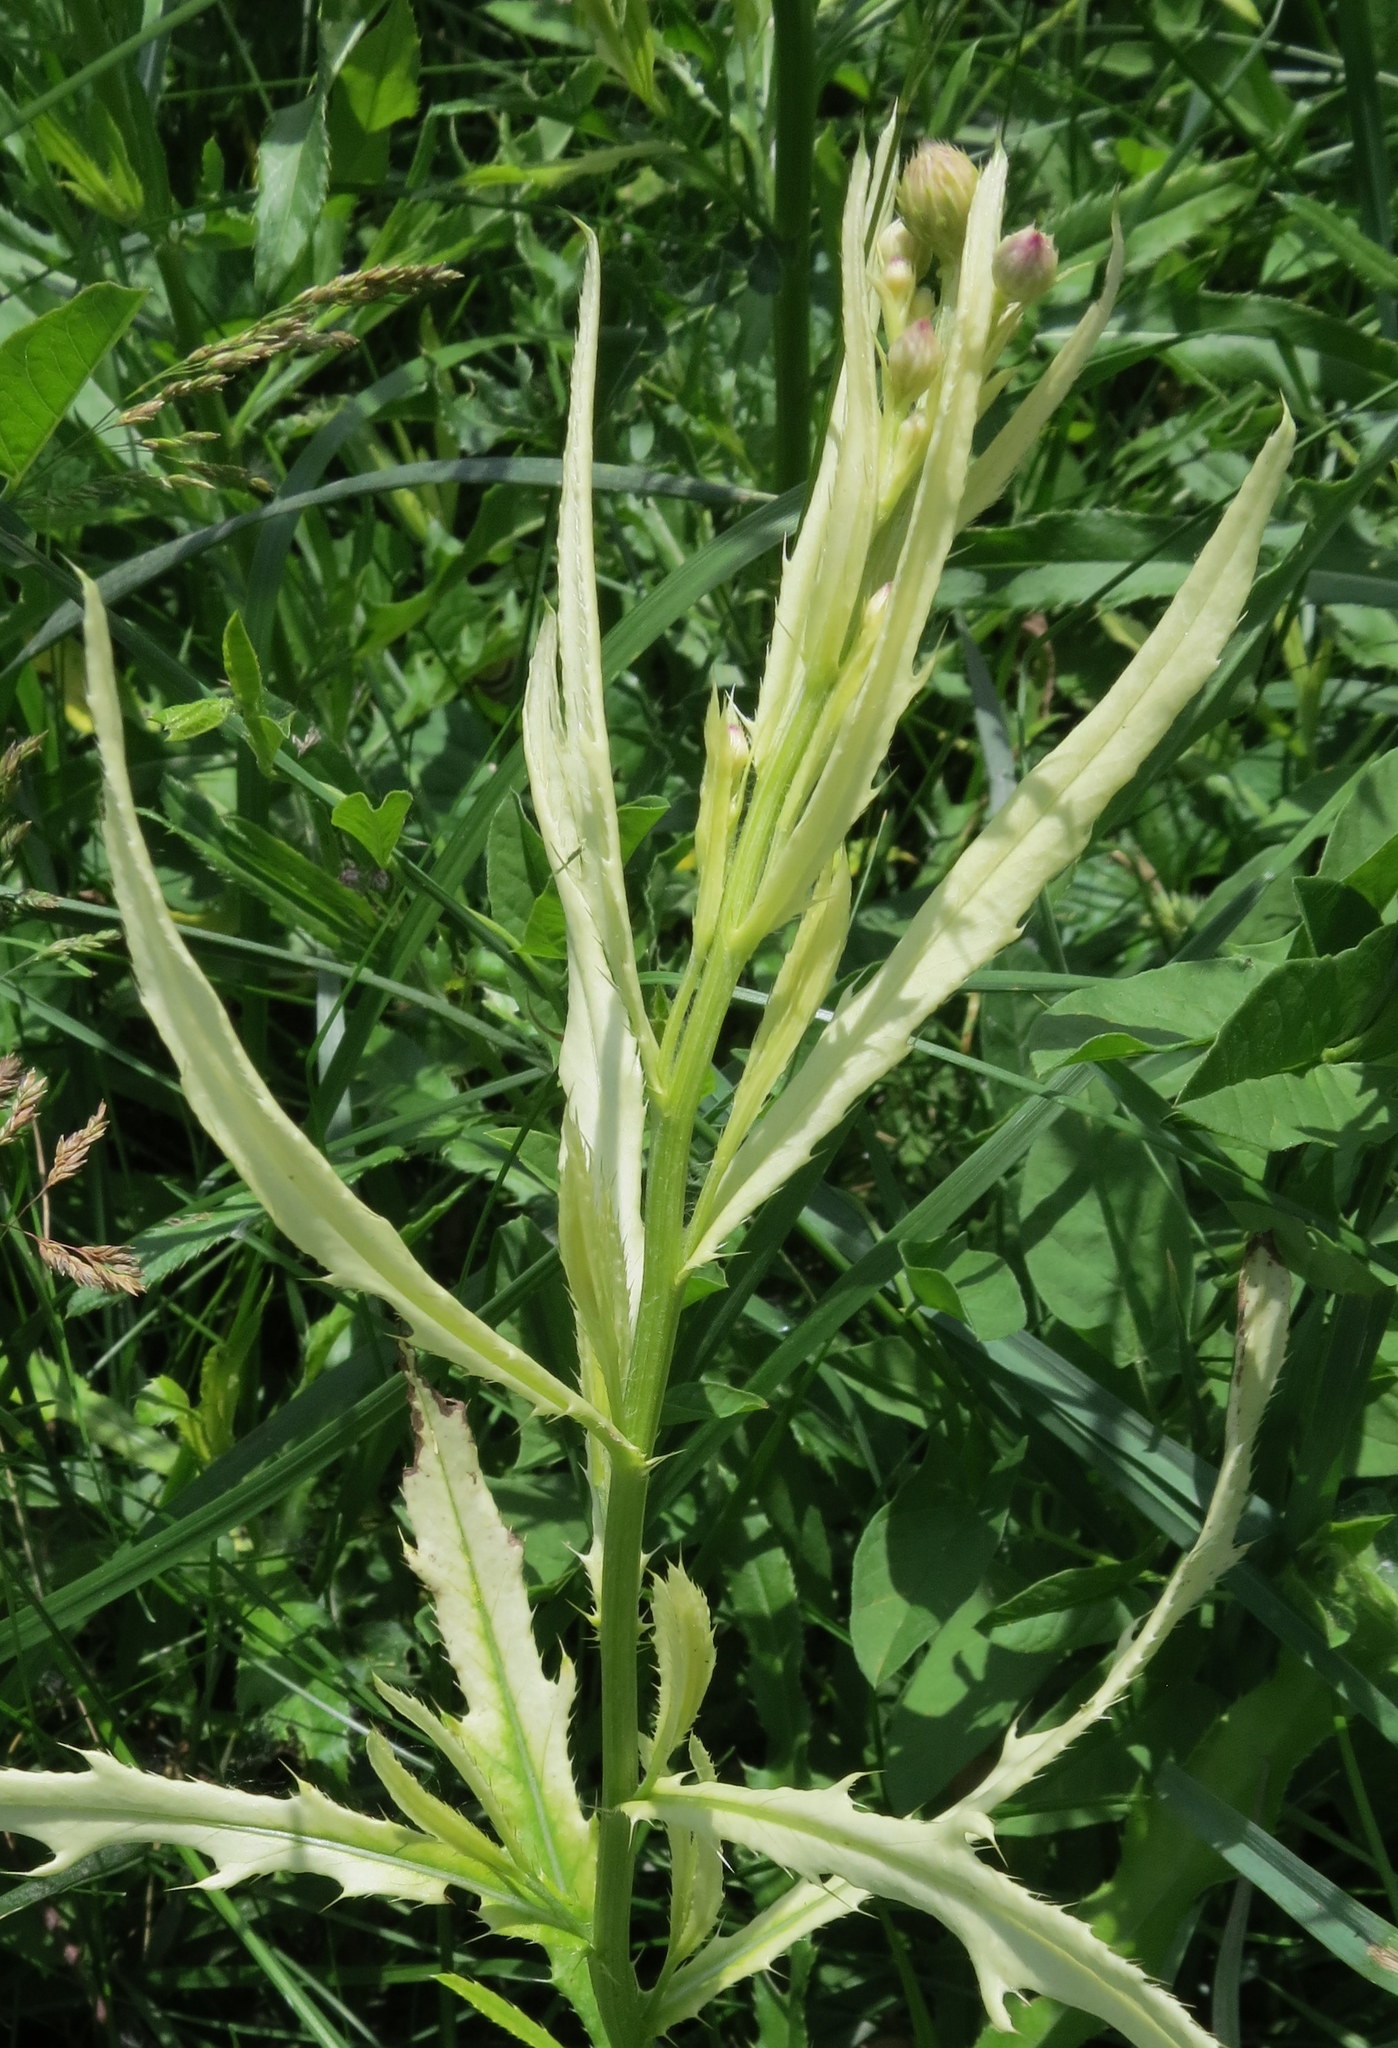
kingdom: Bacteria
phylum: Proteobacteria
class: Gammaproteobacteria
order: Pseudomonadales
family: Pseudomonadaceae
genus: Pseudomonas
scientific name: Pseudomonas syringae
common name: Bacterial speck
